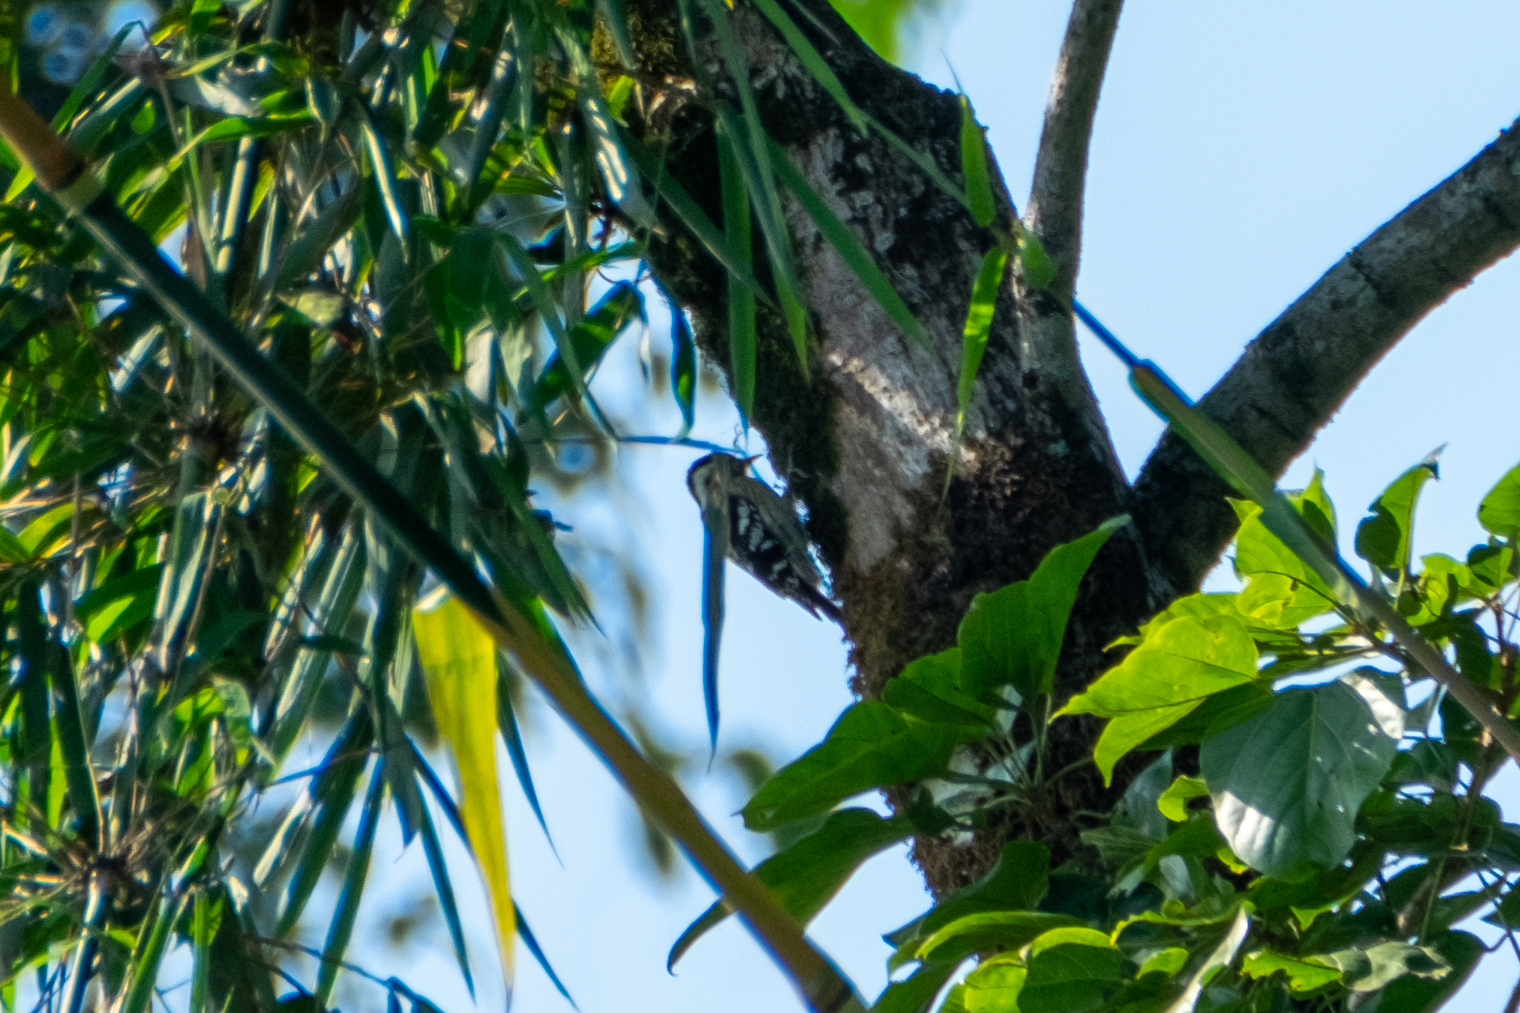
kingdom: Animalia
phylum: Chordata
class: Aves
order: Piciformes
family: Picidae
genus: Yungipicus
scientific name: Yungipicus canicapillus
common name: Grey-capped pygmy woodpecker
